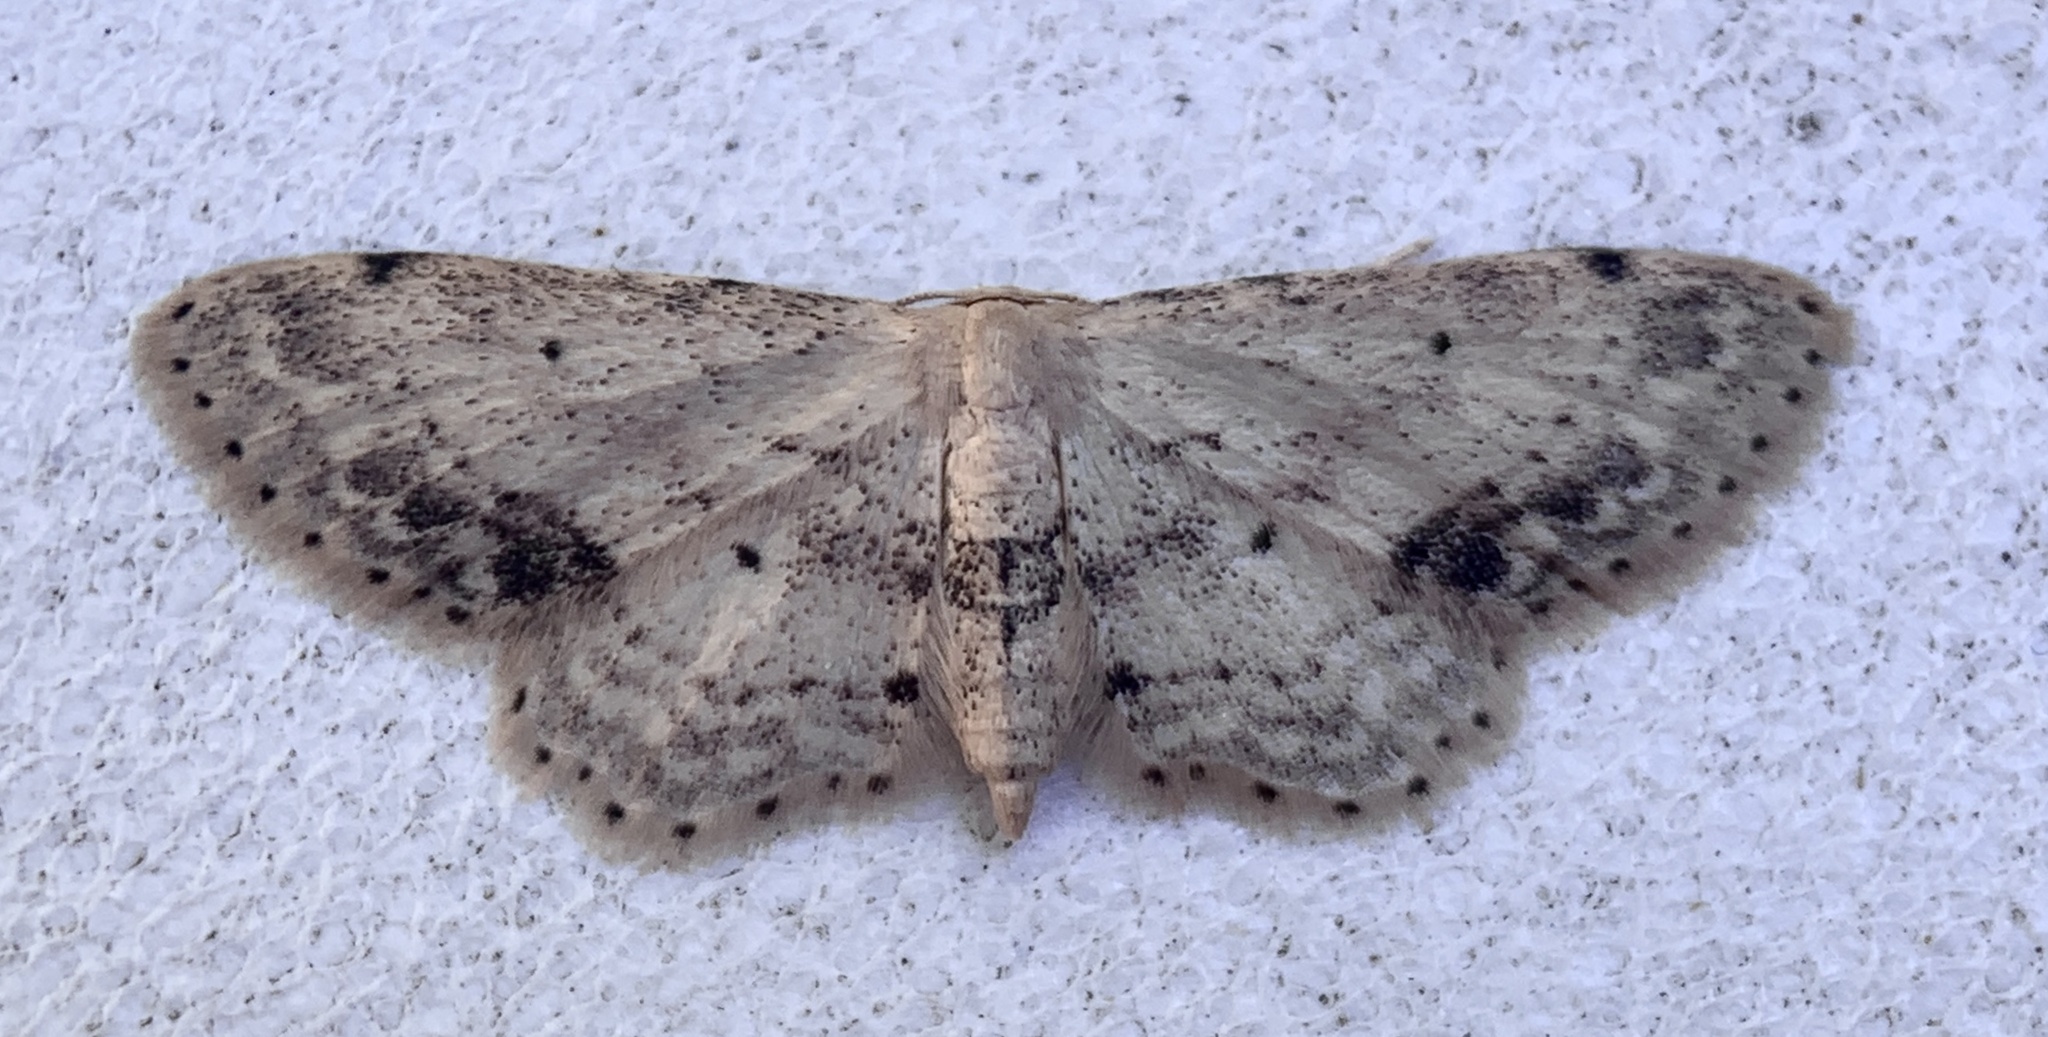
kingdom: Animalia
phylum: Arthropoda
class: Insecta
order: Lepidoptera
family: Geometridae
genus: Idaea
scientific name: Idaea dimidiata
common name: Single-dotted wave
